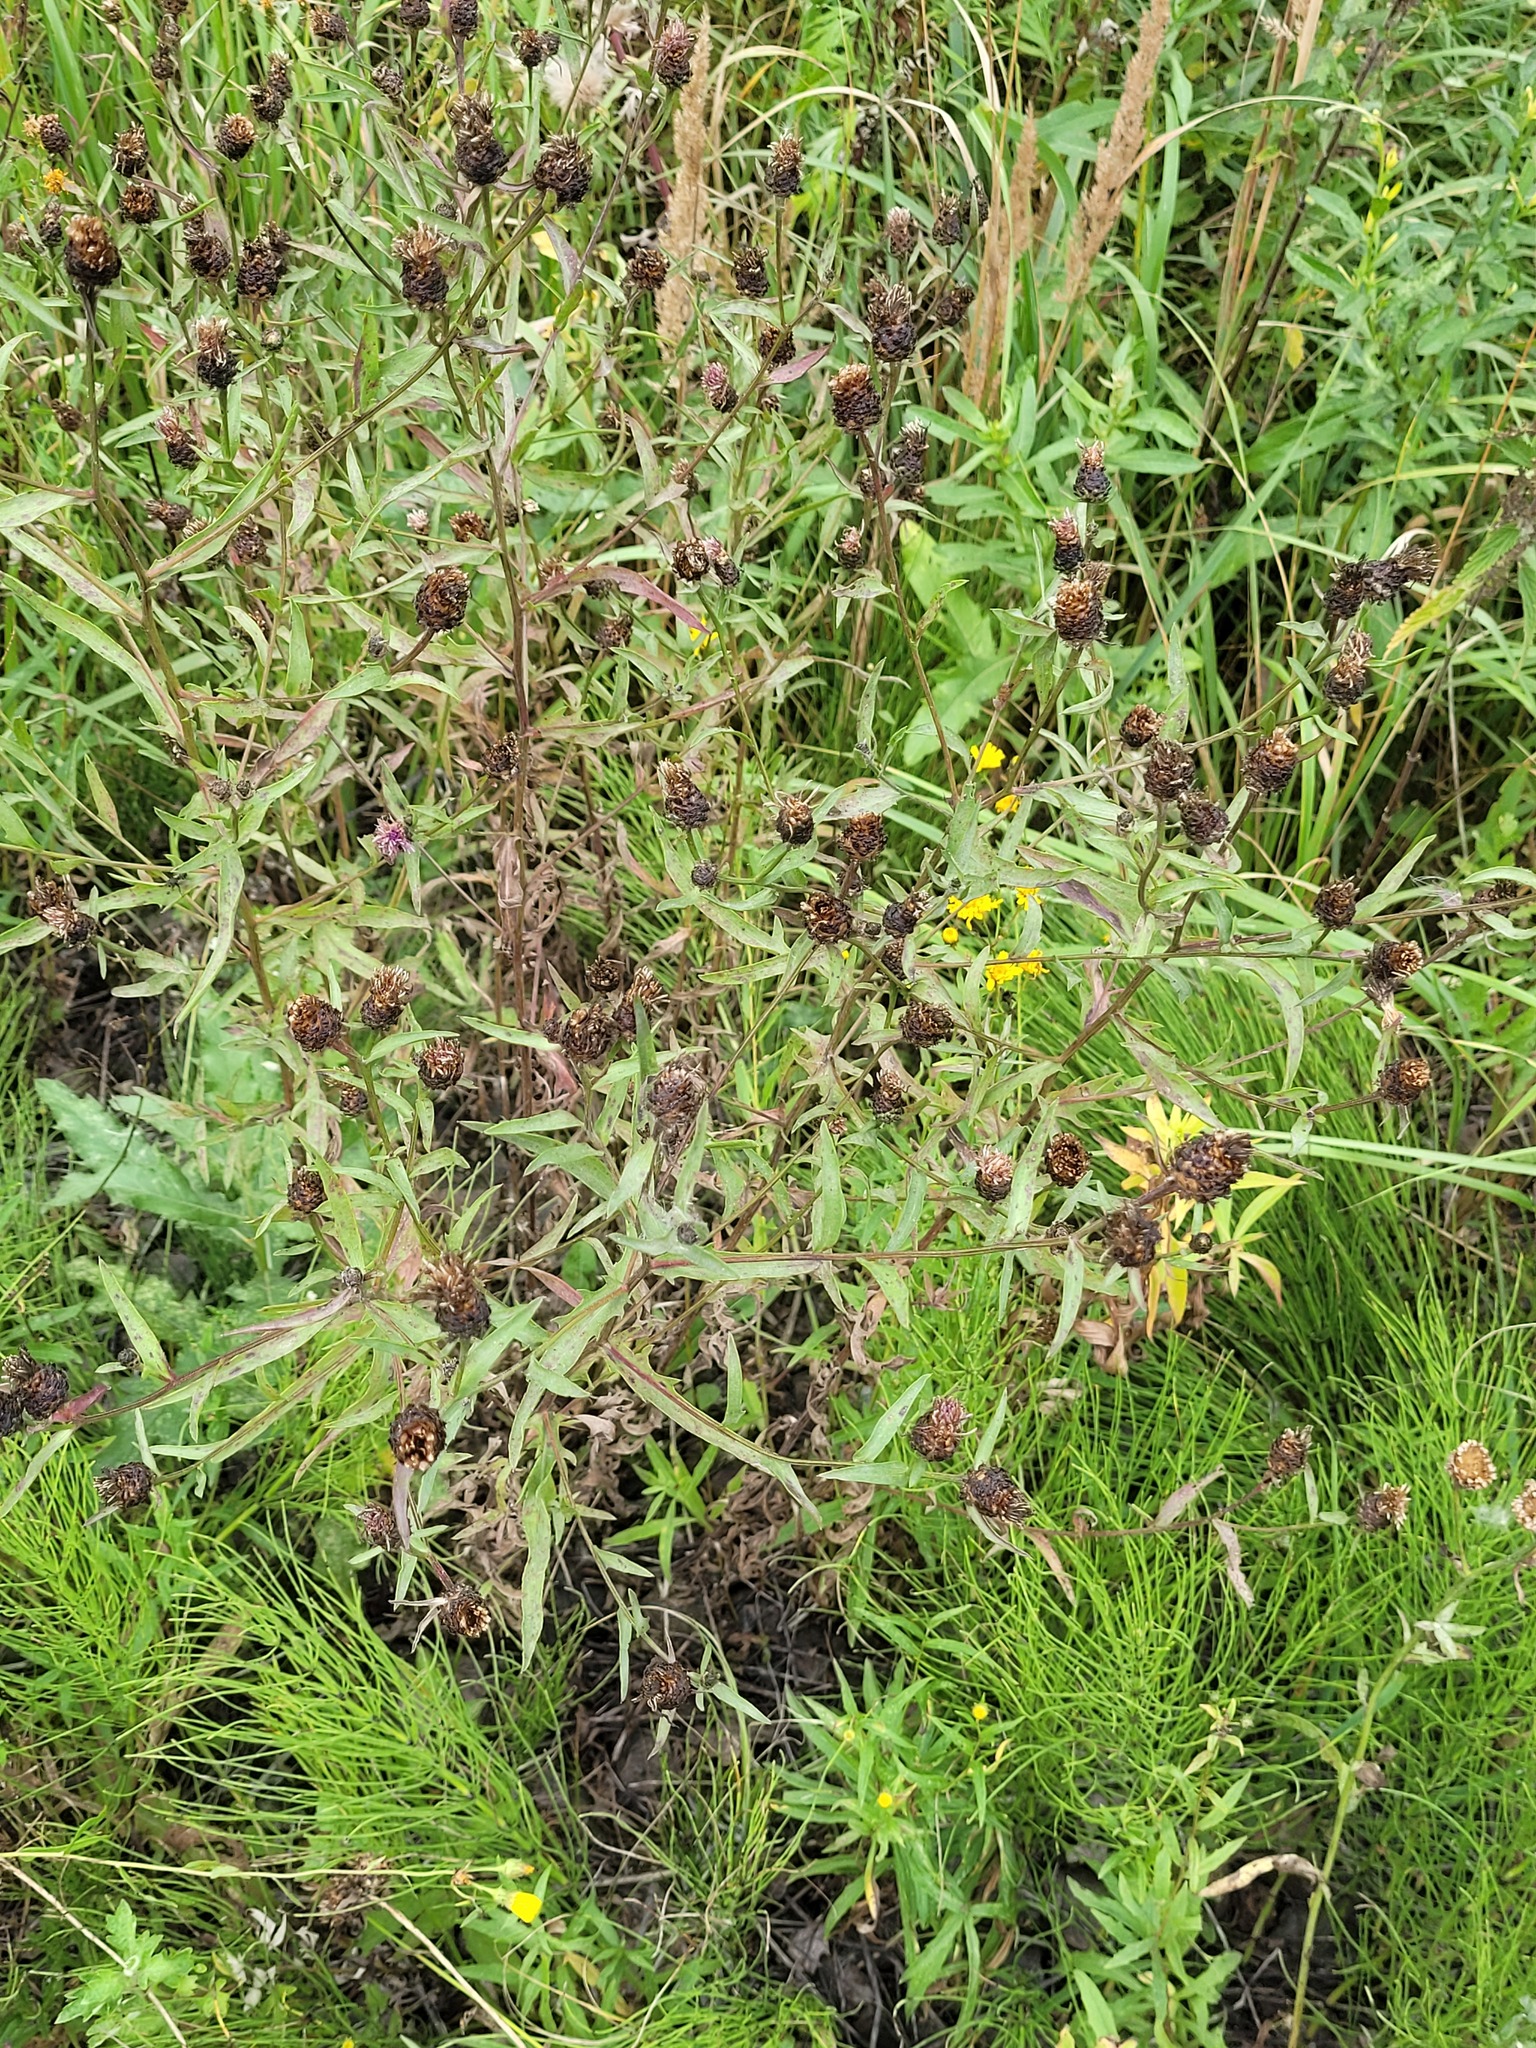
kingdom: Plantae
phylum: Tracheophyta
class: Magnoliopsida
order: Asterales
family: Asteraceae
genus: Centaurea
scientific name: Centaurea jacea
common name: Brown knapweed
